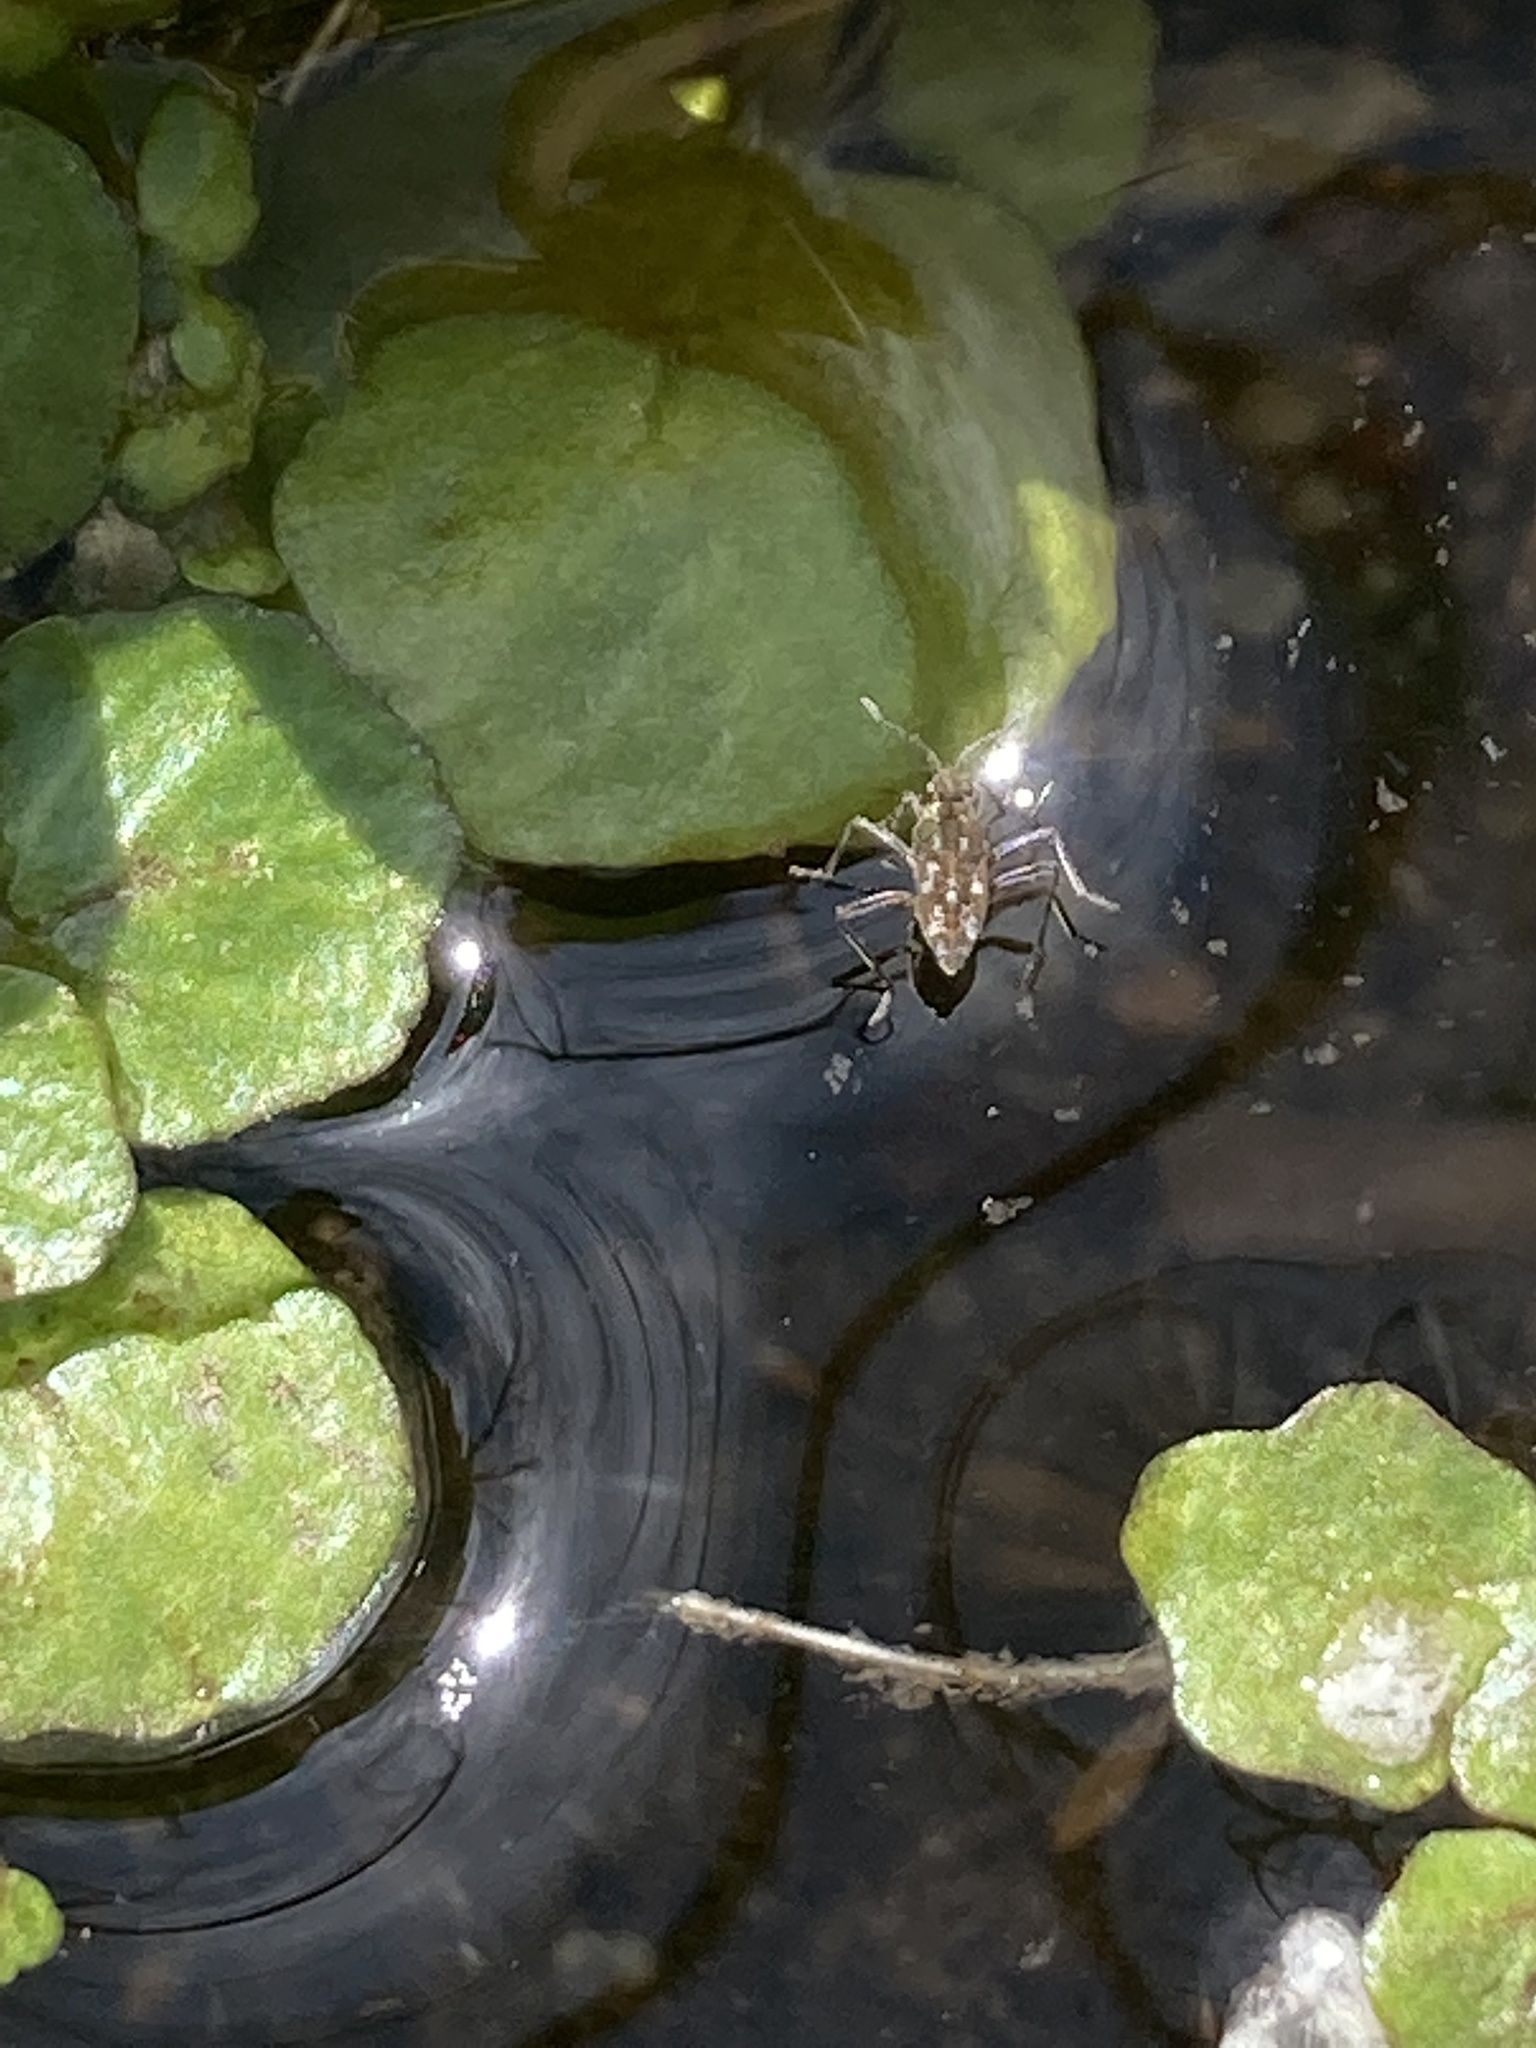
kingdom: Animalia
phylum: Arthropoda
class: Insecta
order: Hemiptera
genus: Kirkaldya
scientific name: Kirkaldya
